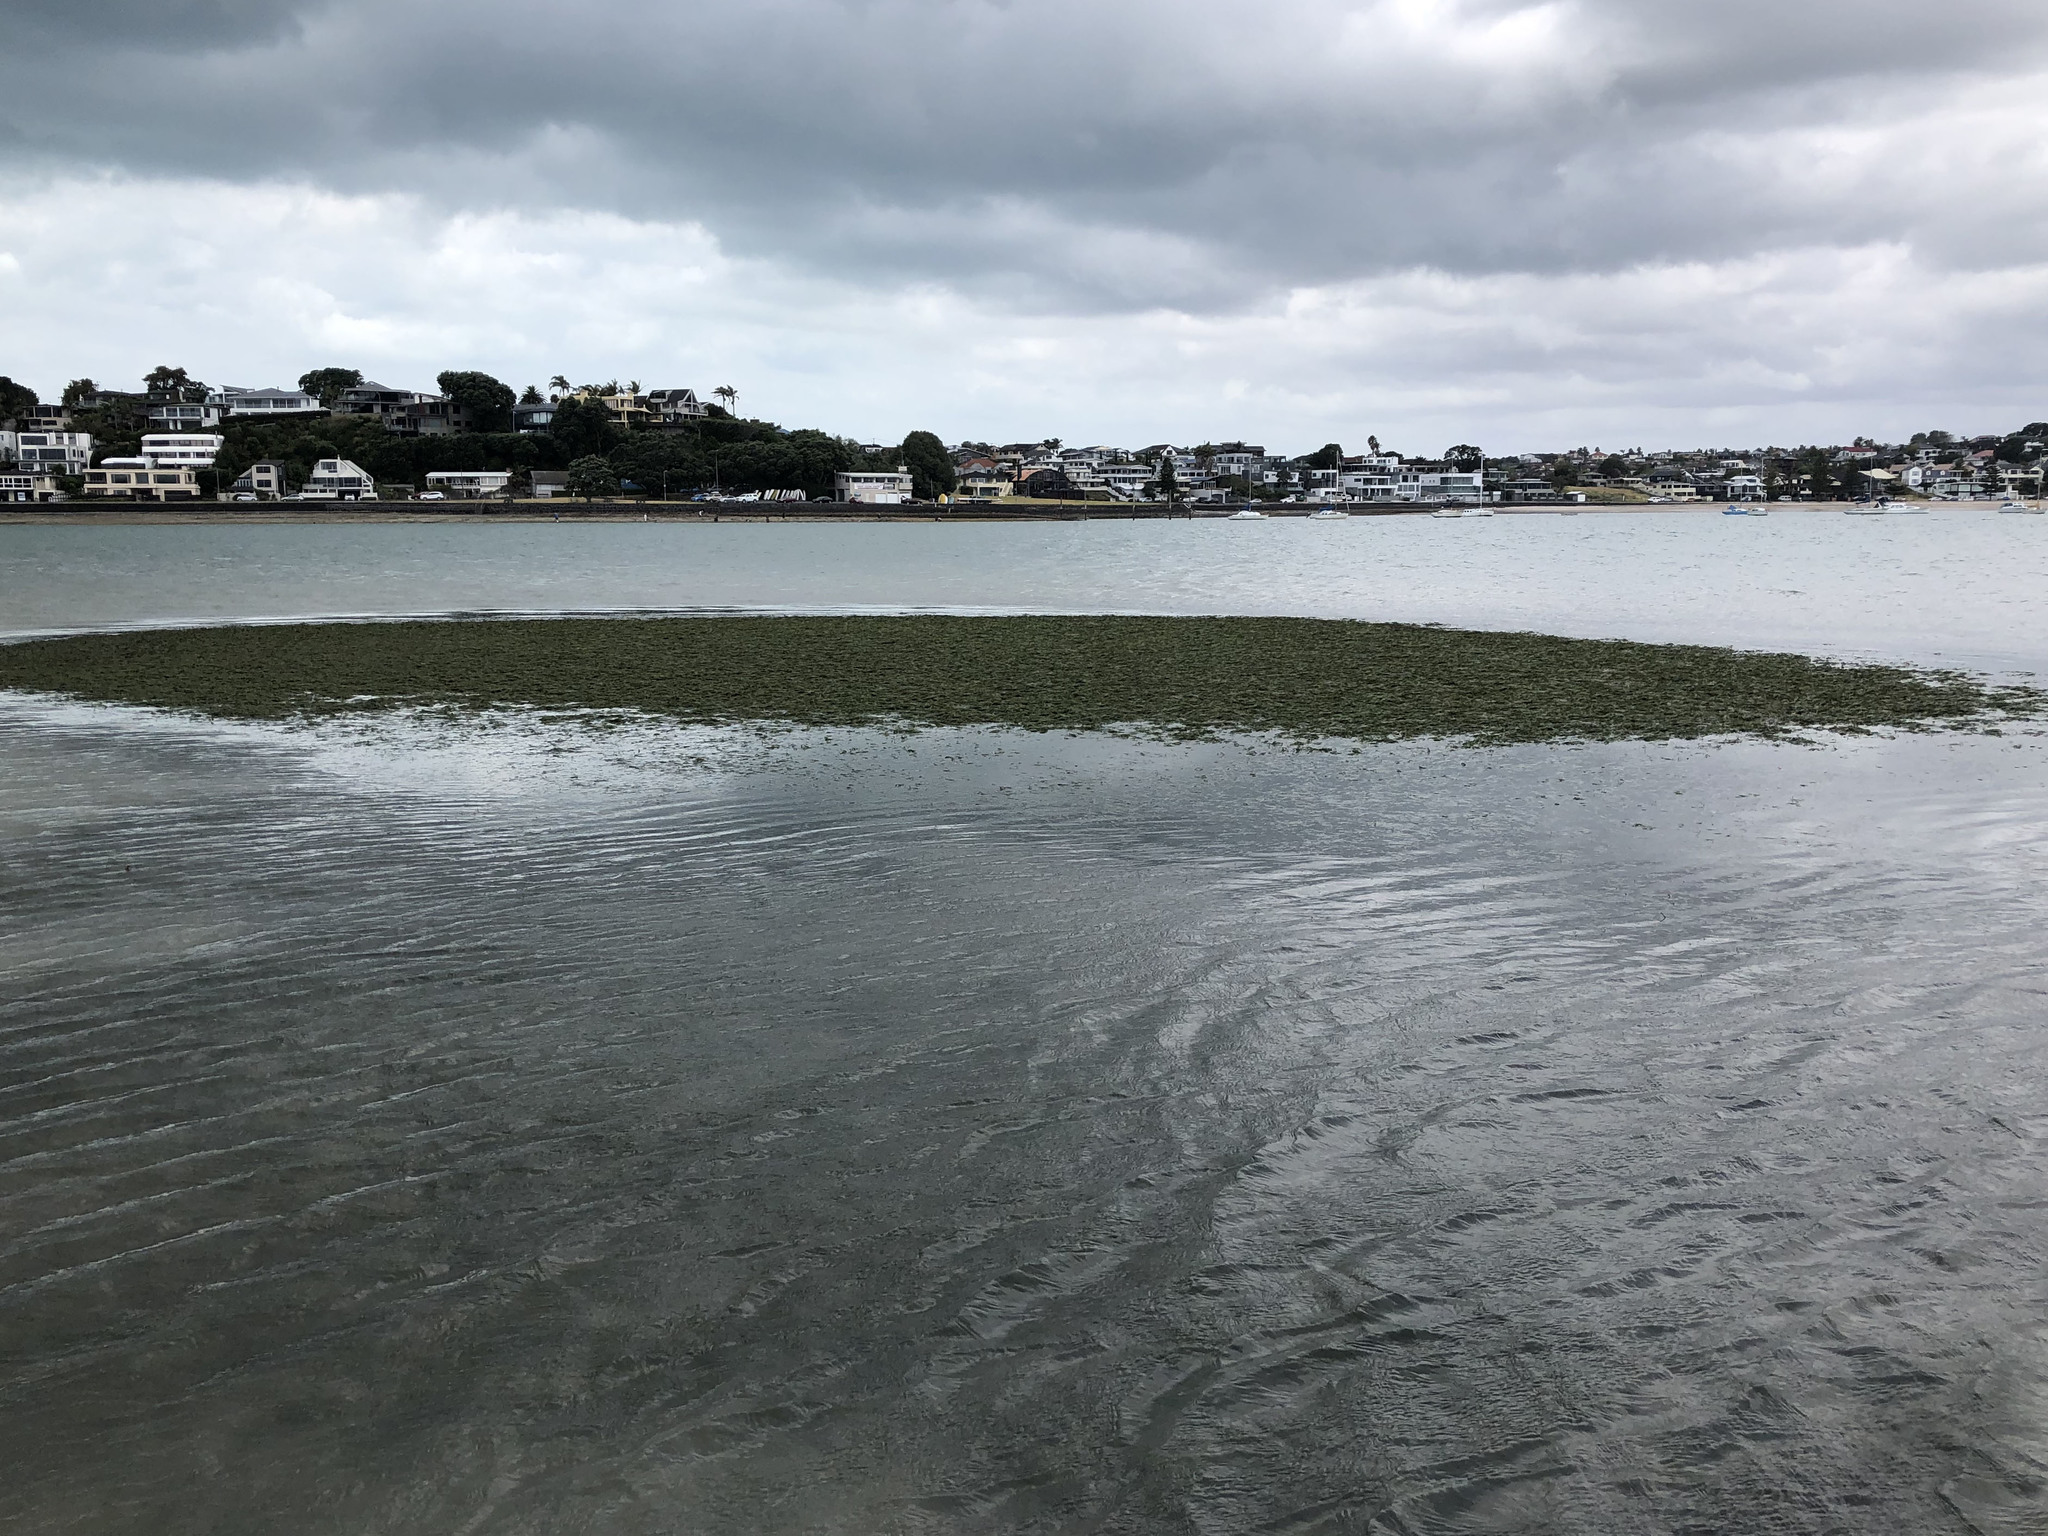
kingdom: Plantae
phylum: Tracheophyta
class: Liliopsida
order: Alismatales
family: Zosteraceae
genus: Zostera
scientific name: Zostera novazelandica
